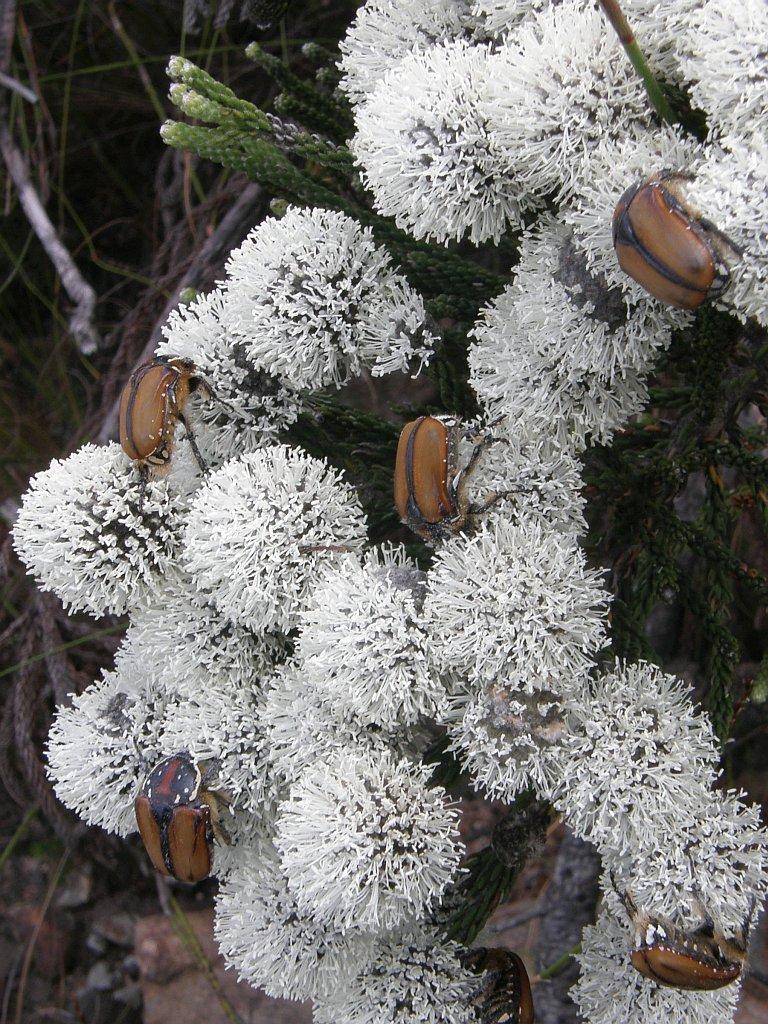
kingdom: Animalia
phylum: Arthropoda
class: Insecta
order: Coleoptera
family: Scarabaeidae
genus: Trichostetha
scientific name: Trichostetha capensis
